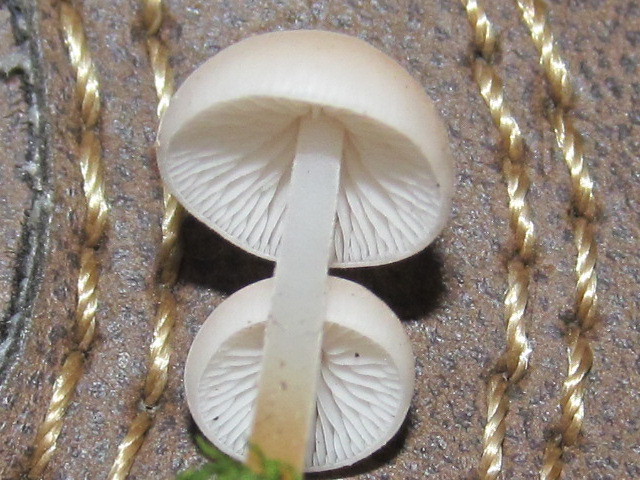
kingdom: Fungi
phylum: Basidiomycota
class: Agaricomycetes
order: Agaricales
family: Physalacriaceae
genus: Strobilurus
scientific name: Strobilurus trullisatus
